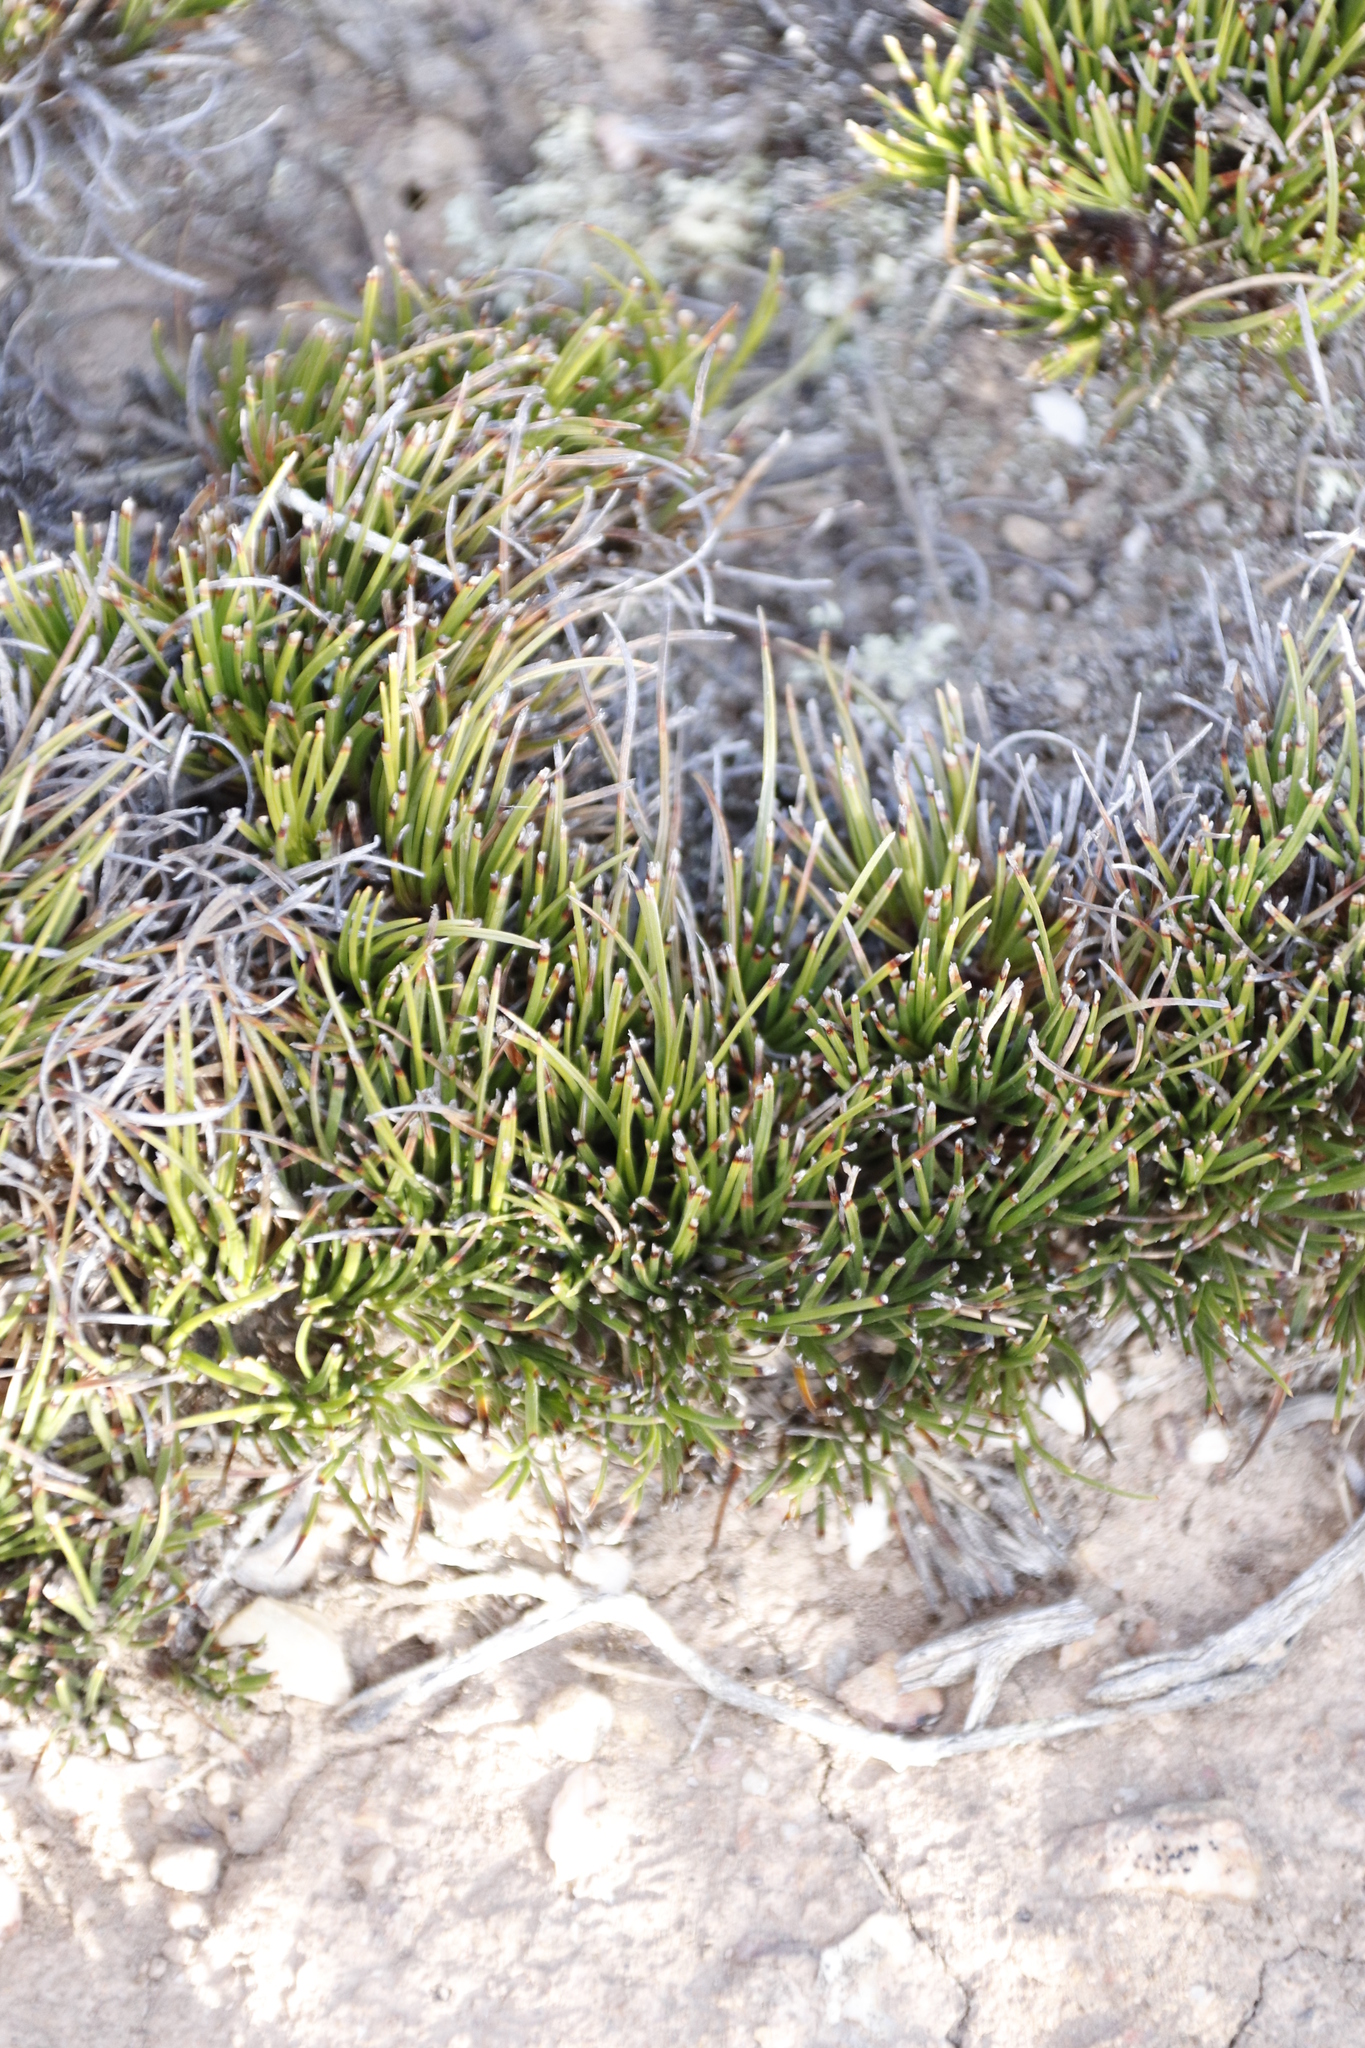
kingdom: Plantae
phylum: Tracheophyta
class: Liliopsida
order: Poales
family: Restionaceae
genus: Elegia
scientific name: Elegia squamosa
